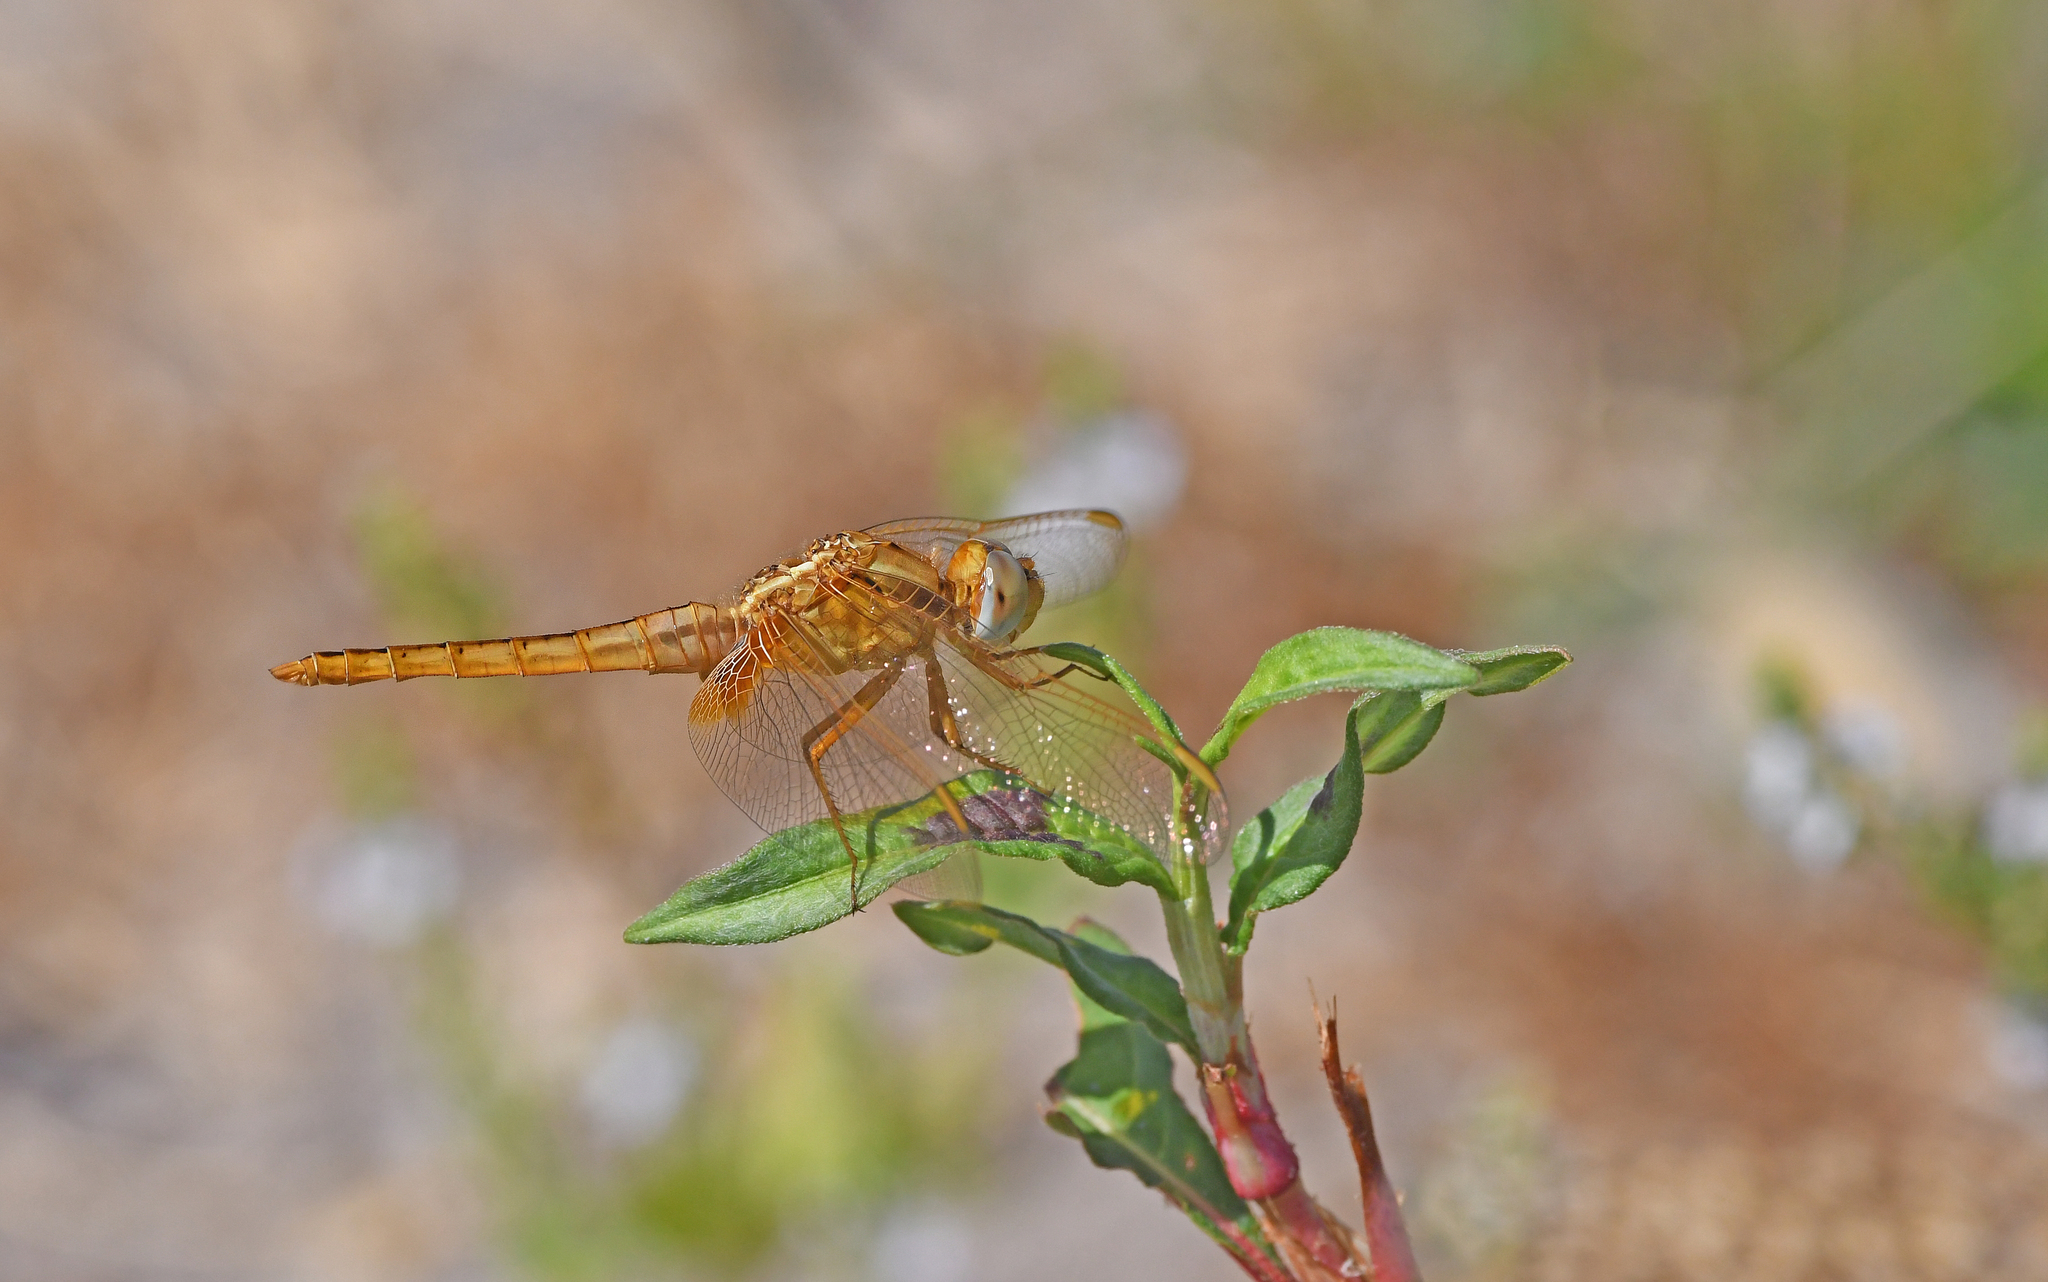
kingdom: Animalia
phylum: Arthropoda
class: Insecta
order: Odonata
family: Libellulidae
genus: Crocothemis
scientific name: Crocothemis erythraea
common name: Scarlet dragonfly
